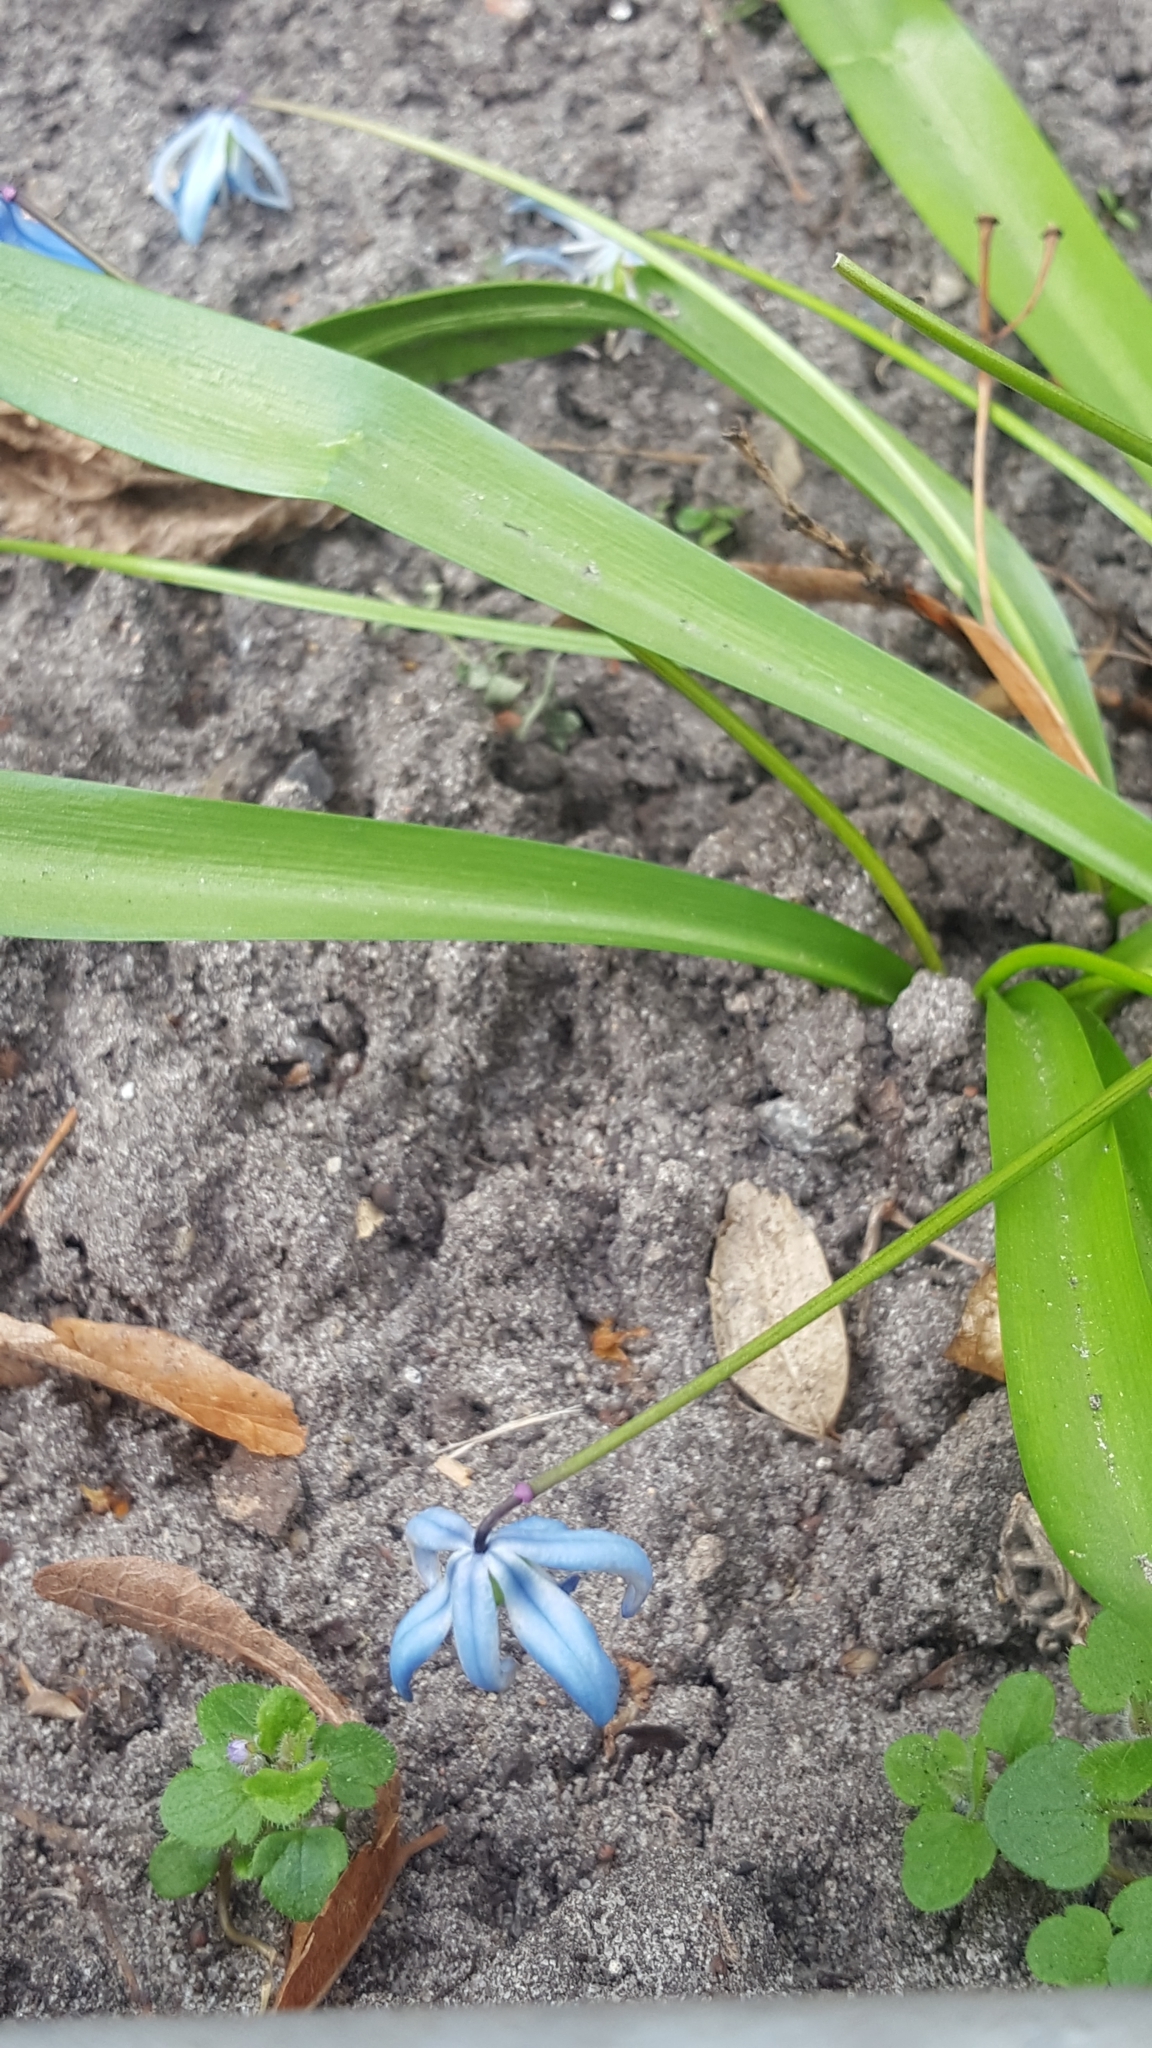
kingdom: Plantae
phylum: Tracheophyta
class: Liliopsida
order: Asparagales
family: Asparagaceae
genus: Scilla
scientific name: Scilla siberica
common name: Siberian squill
